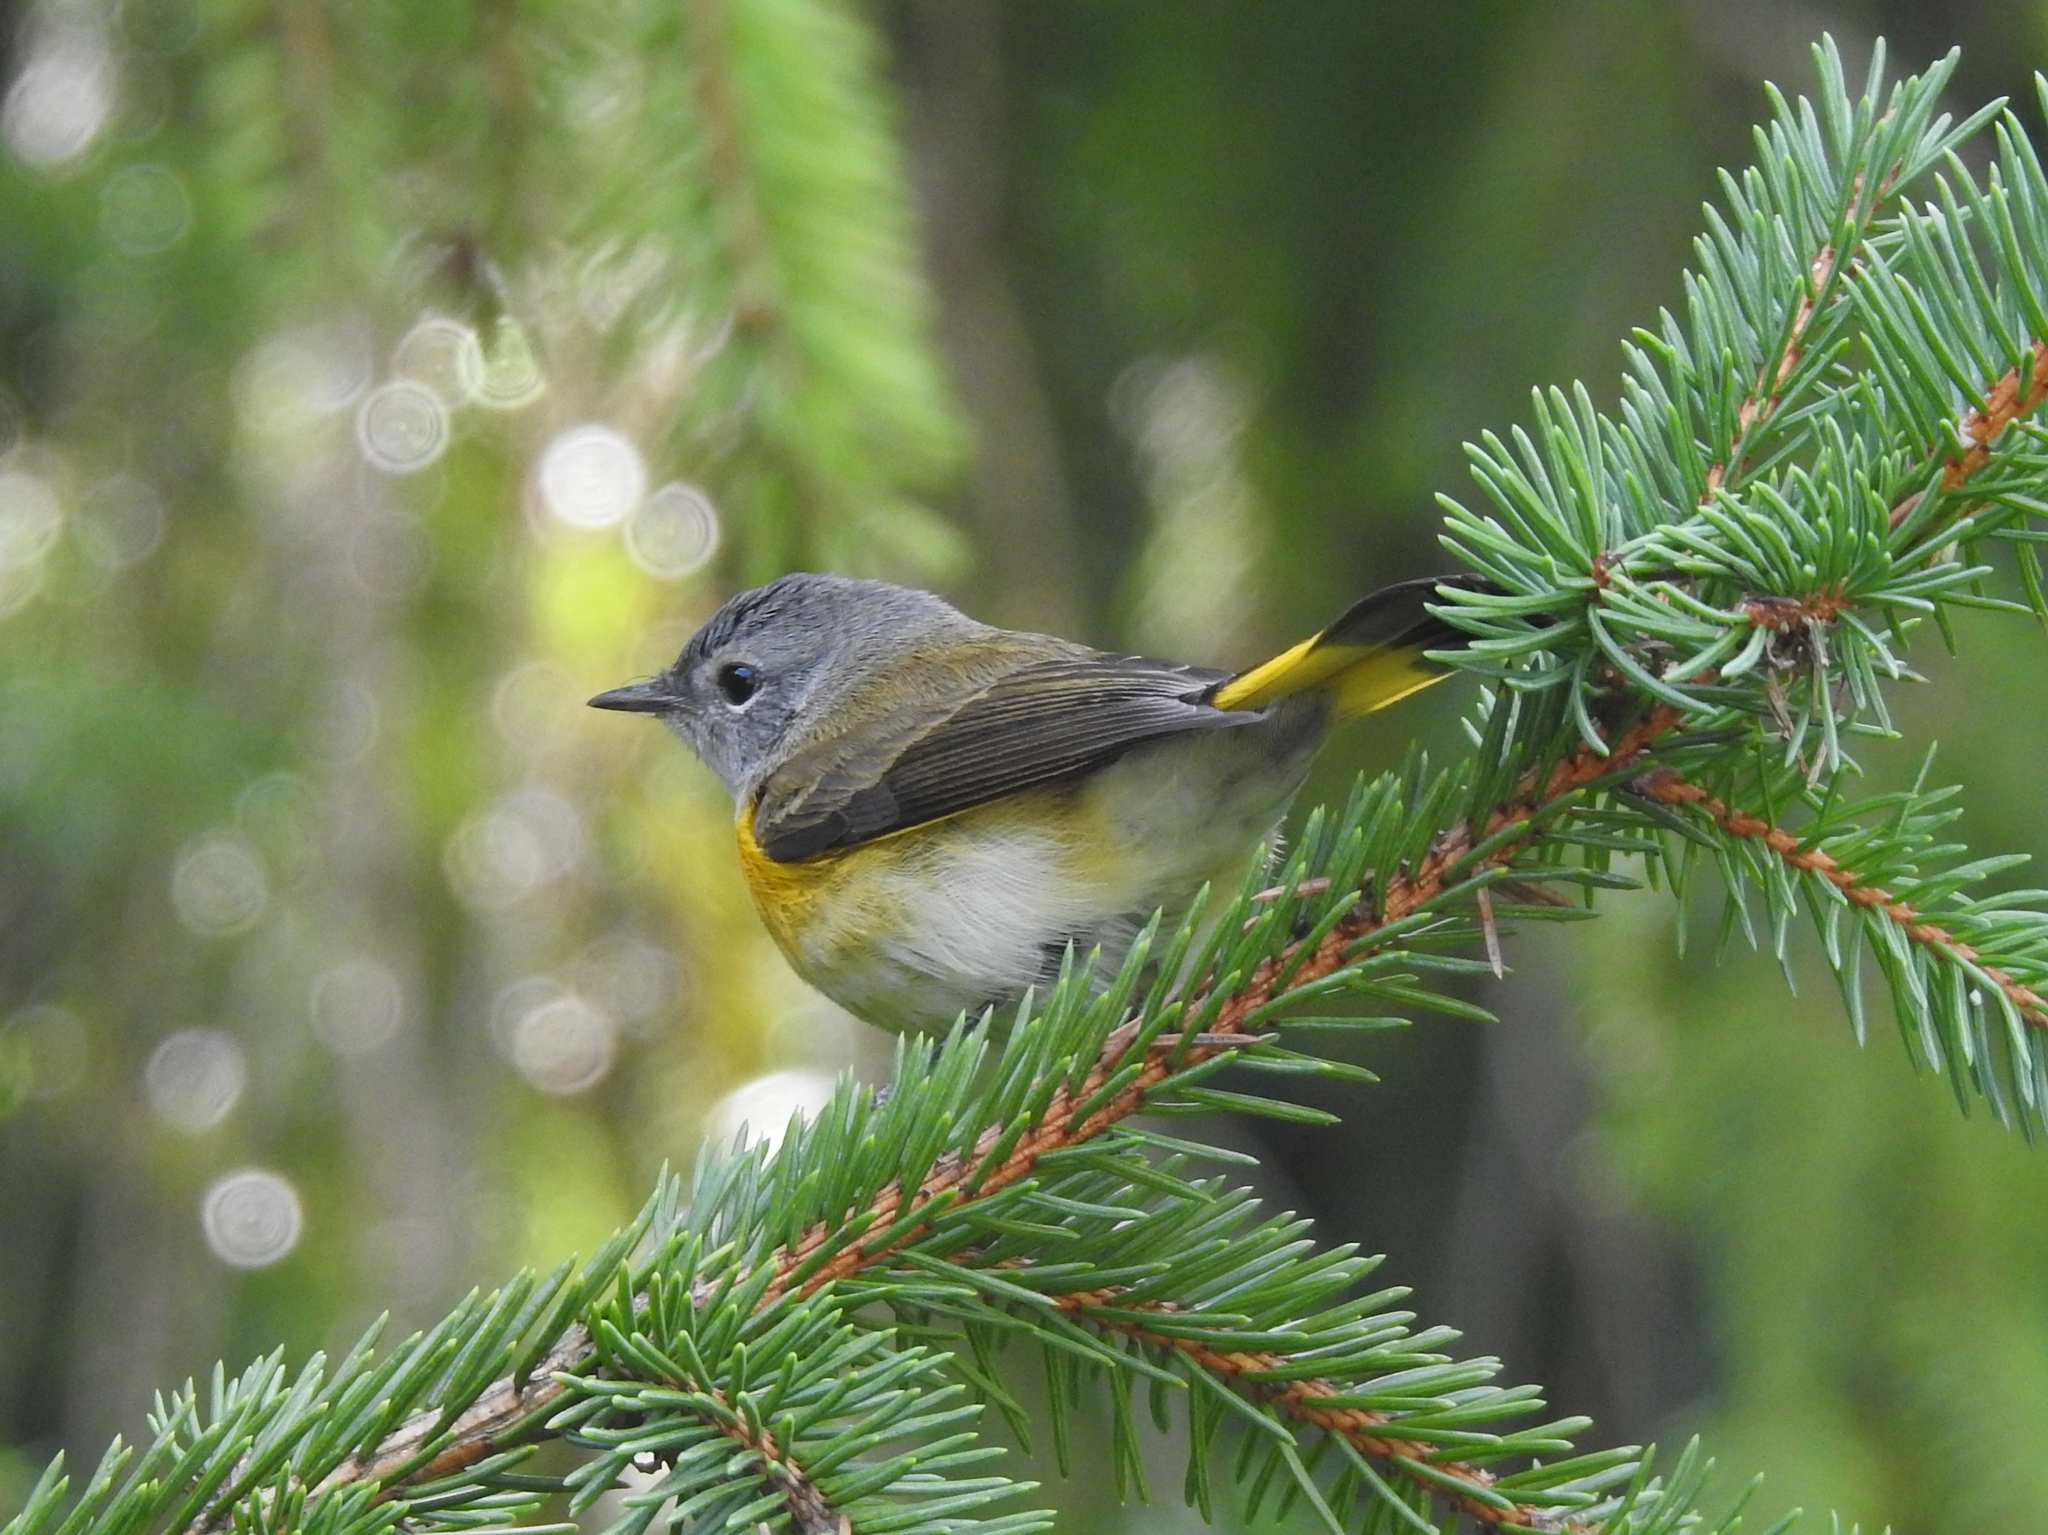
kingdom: Animalia
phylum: Chordata
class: Aves
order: Passeriformes
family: Parulidae
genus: Setophaga
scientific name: Setophaga ruticilla
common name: American redstart
